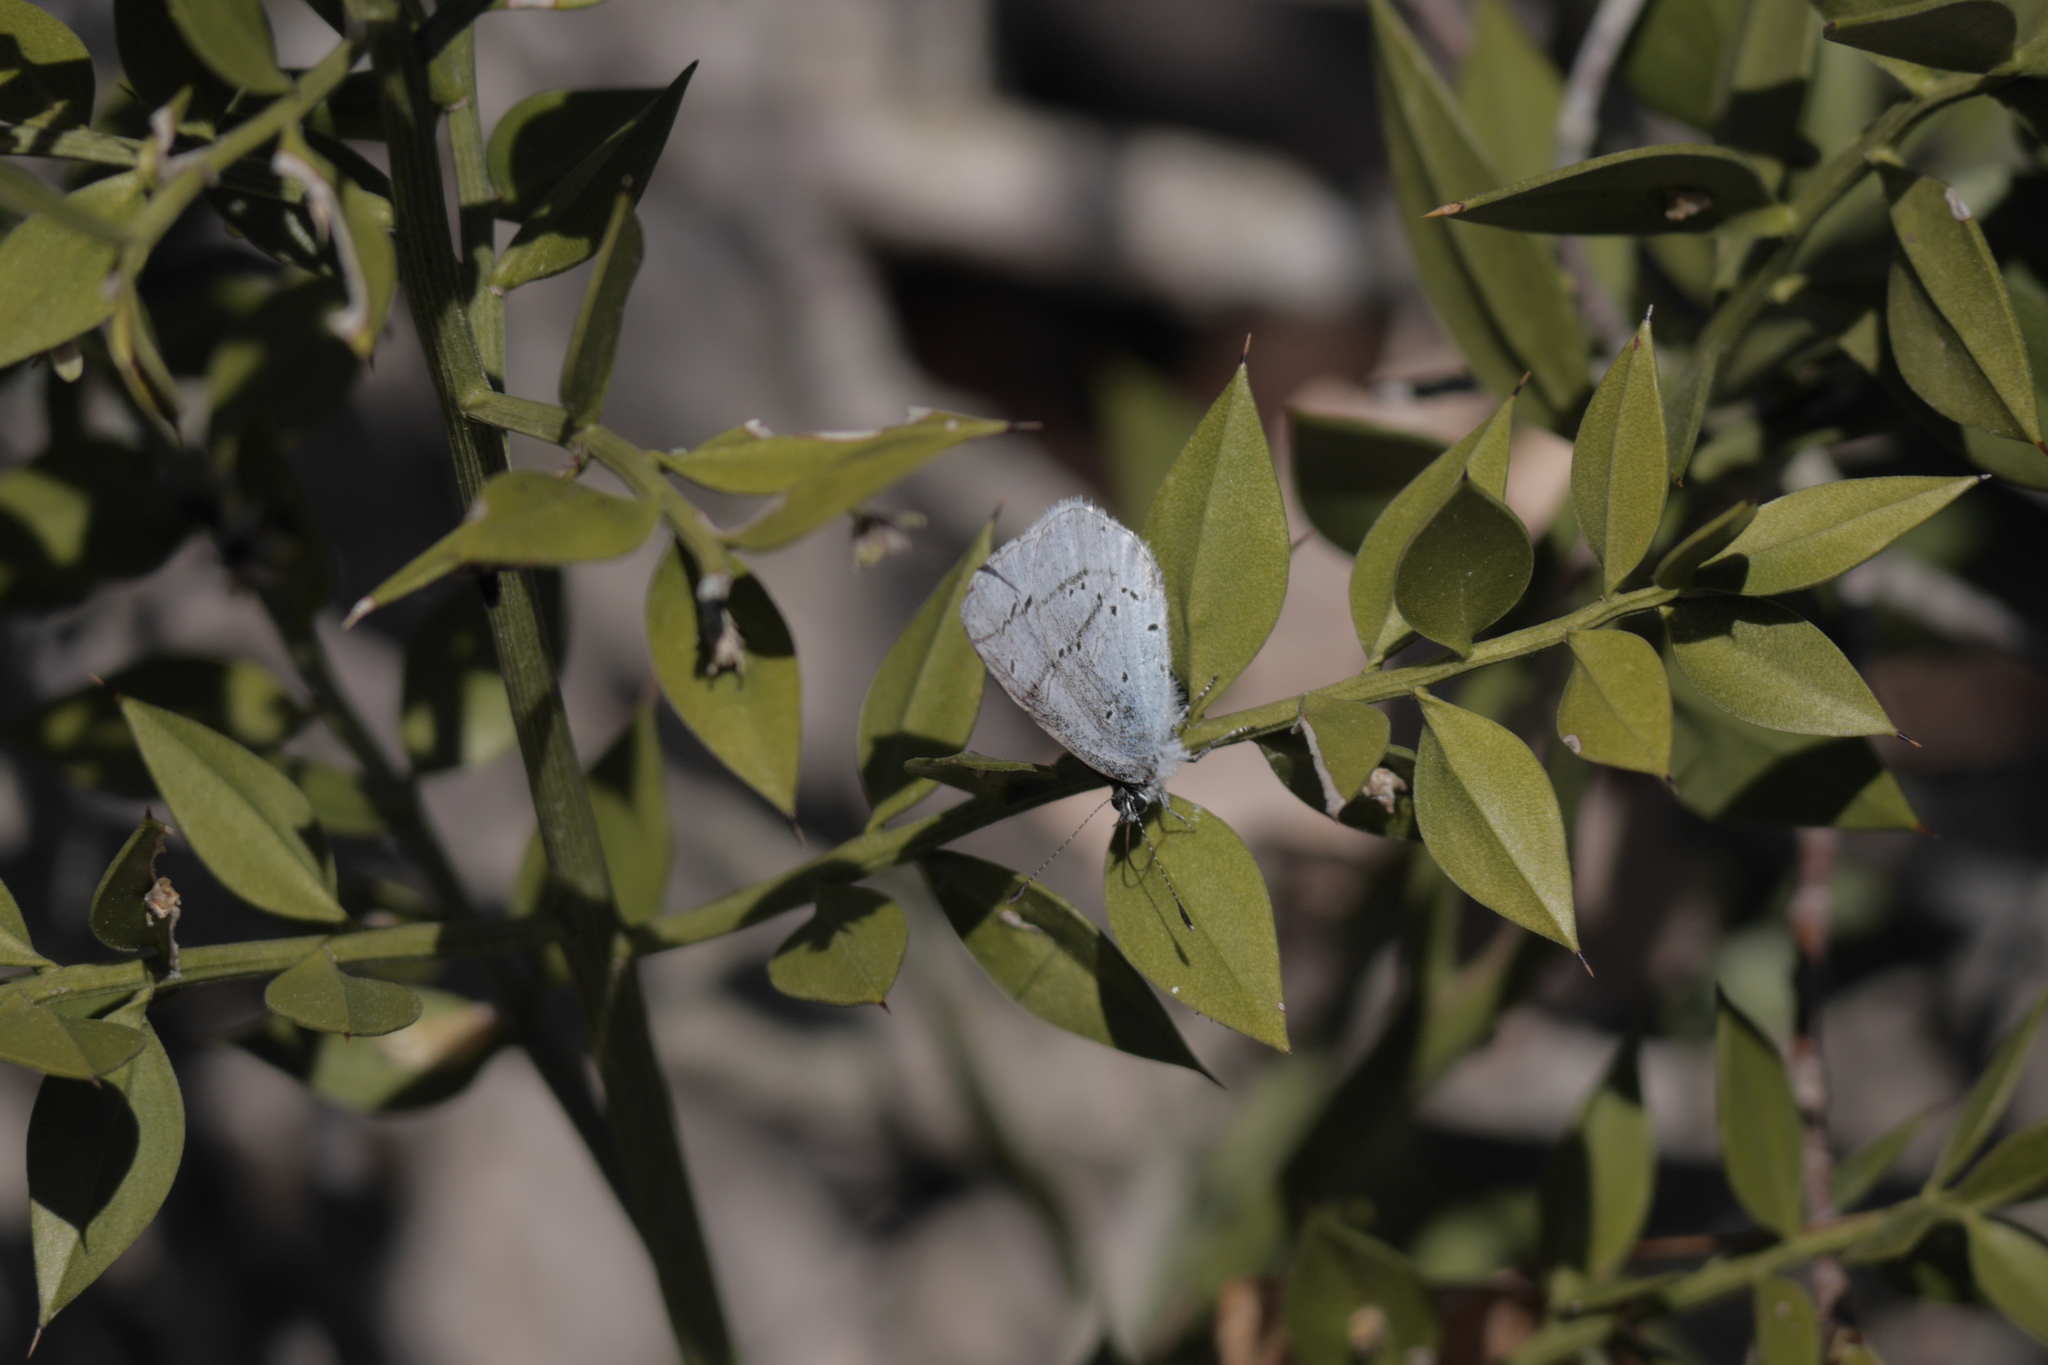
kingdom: Animalia
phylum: Arthropoda
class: Insecta
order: Lepidoptera
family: Lycaenidae
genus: Celastrina
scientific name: Celastrina argiolus
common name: Holly blue
